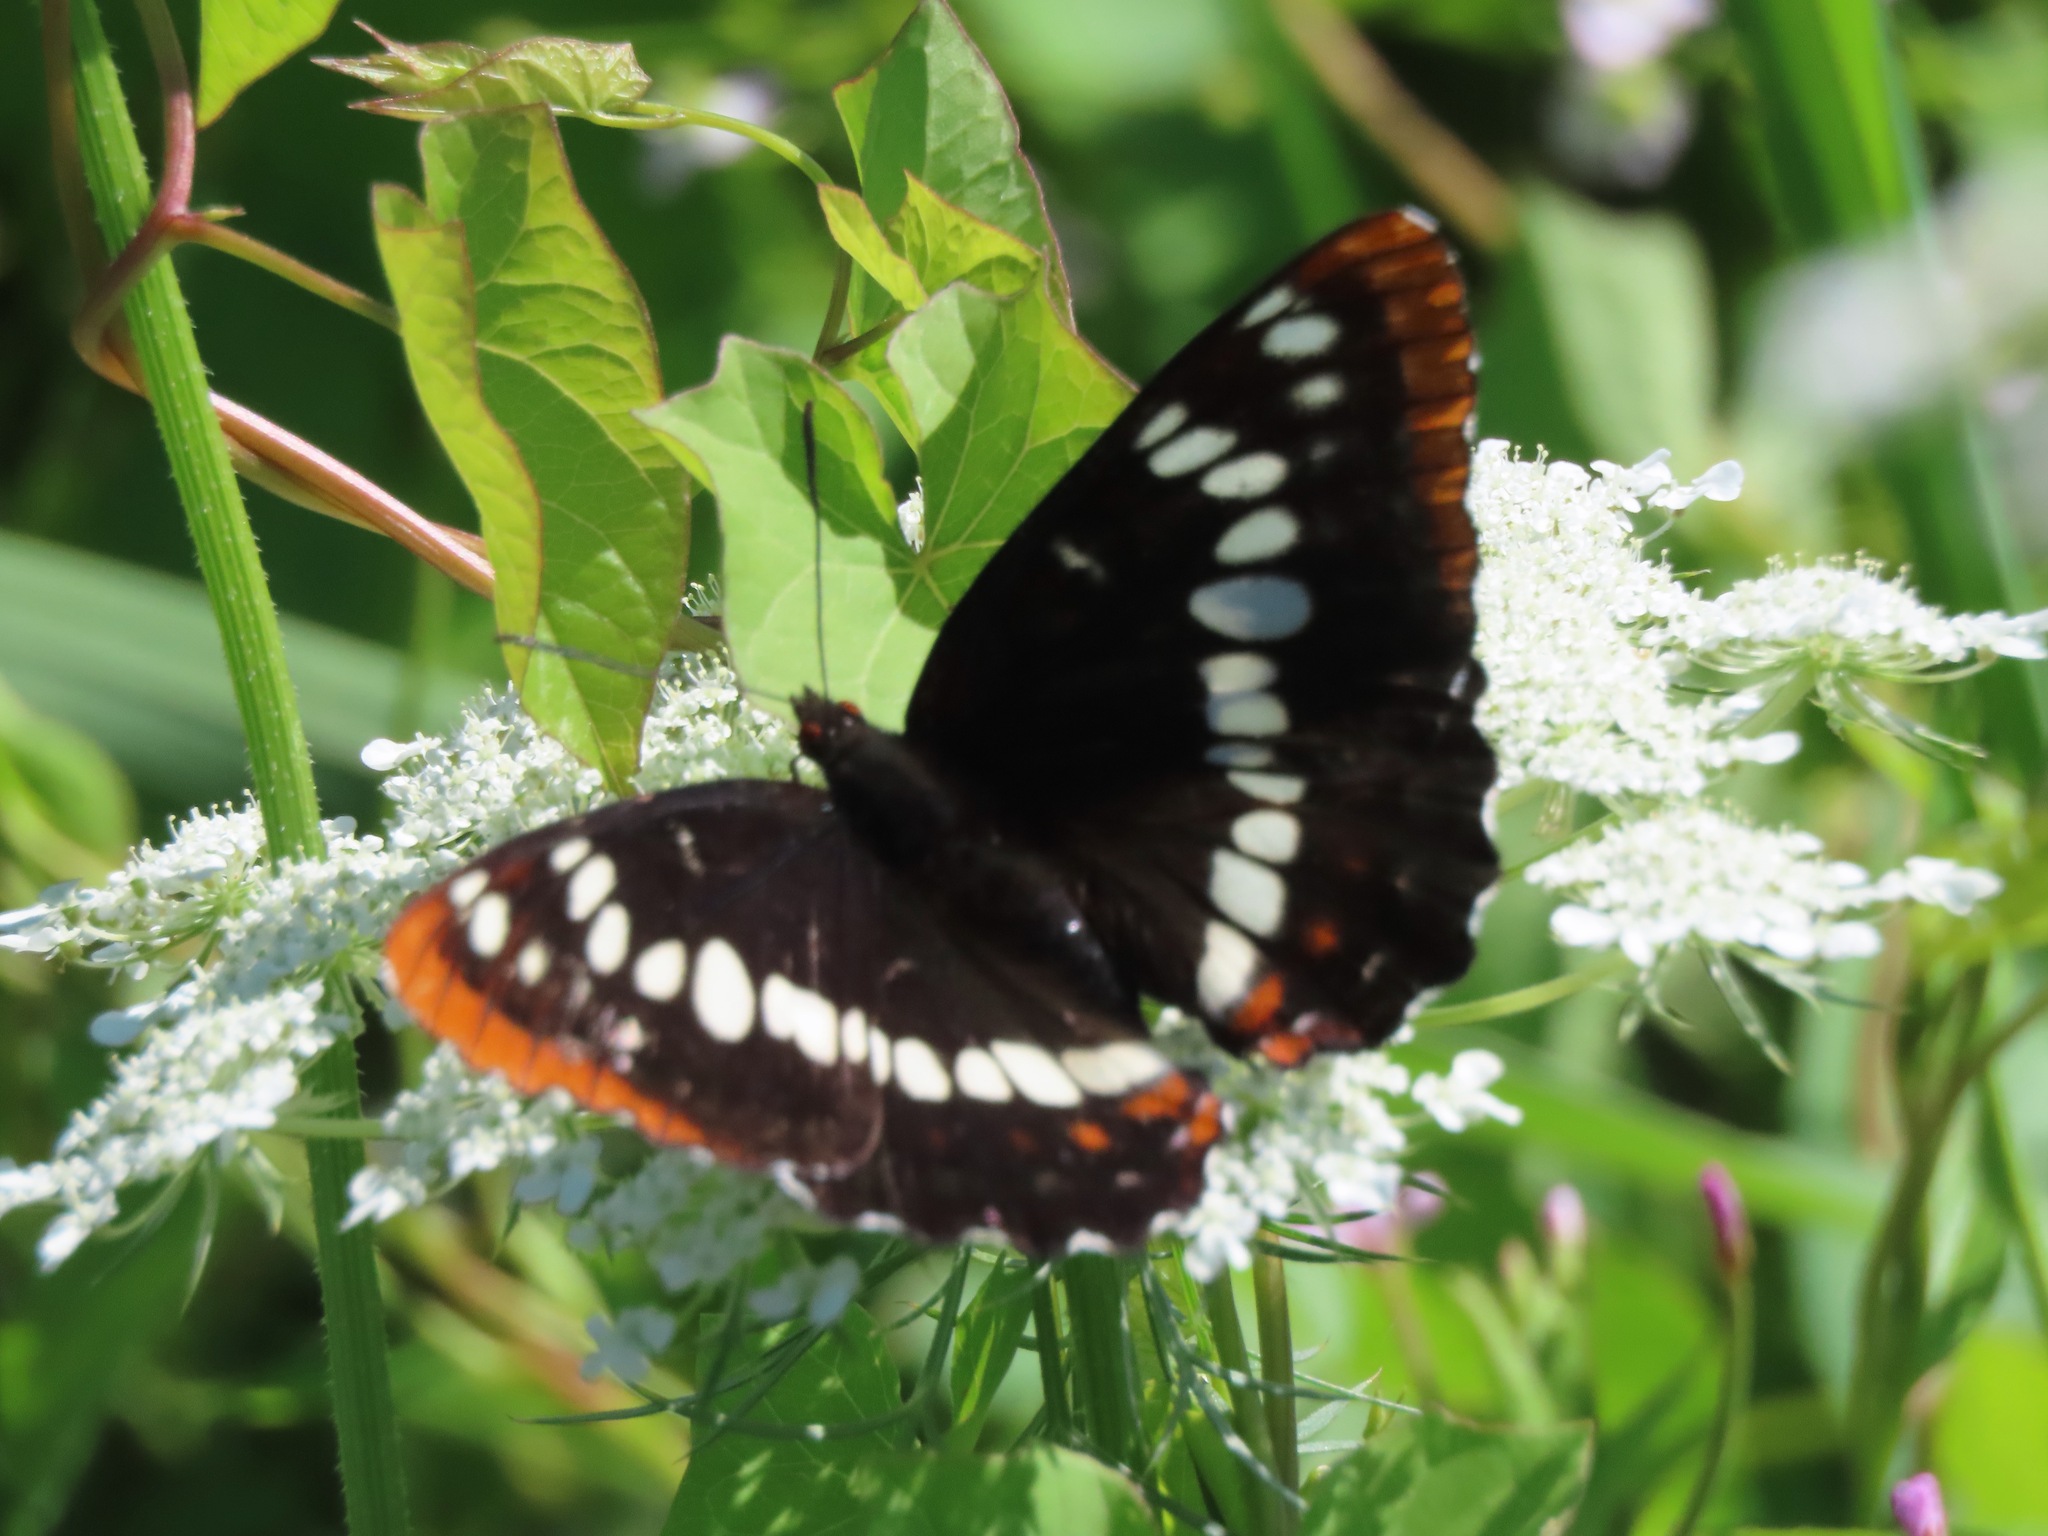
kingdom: Animalia
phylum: Arthropoda
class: Insecta
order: Lepidoptera
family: Nymphalidae
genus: Limenitis
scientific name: Limenitis lorquini
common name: Lorquin's admiral
